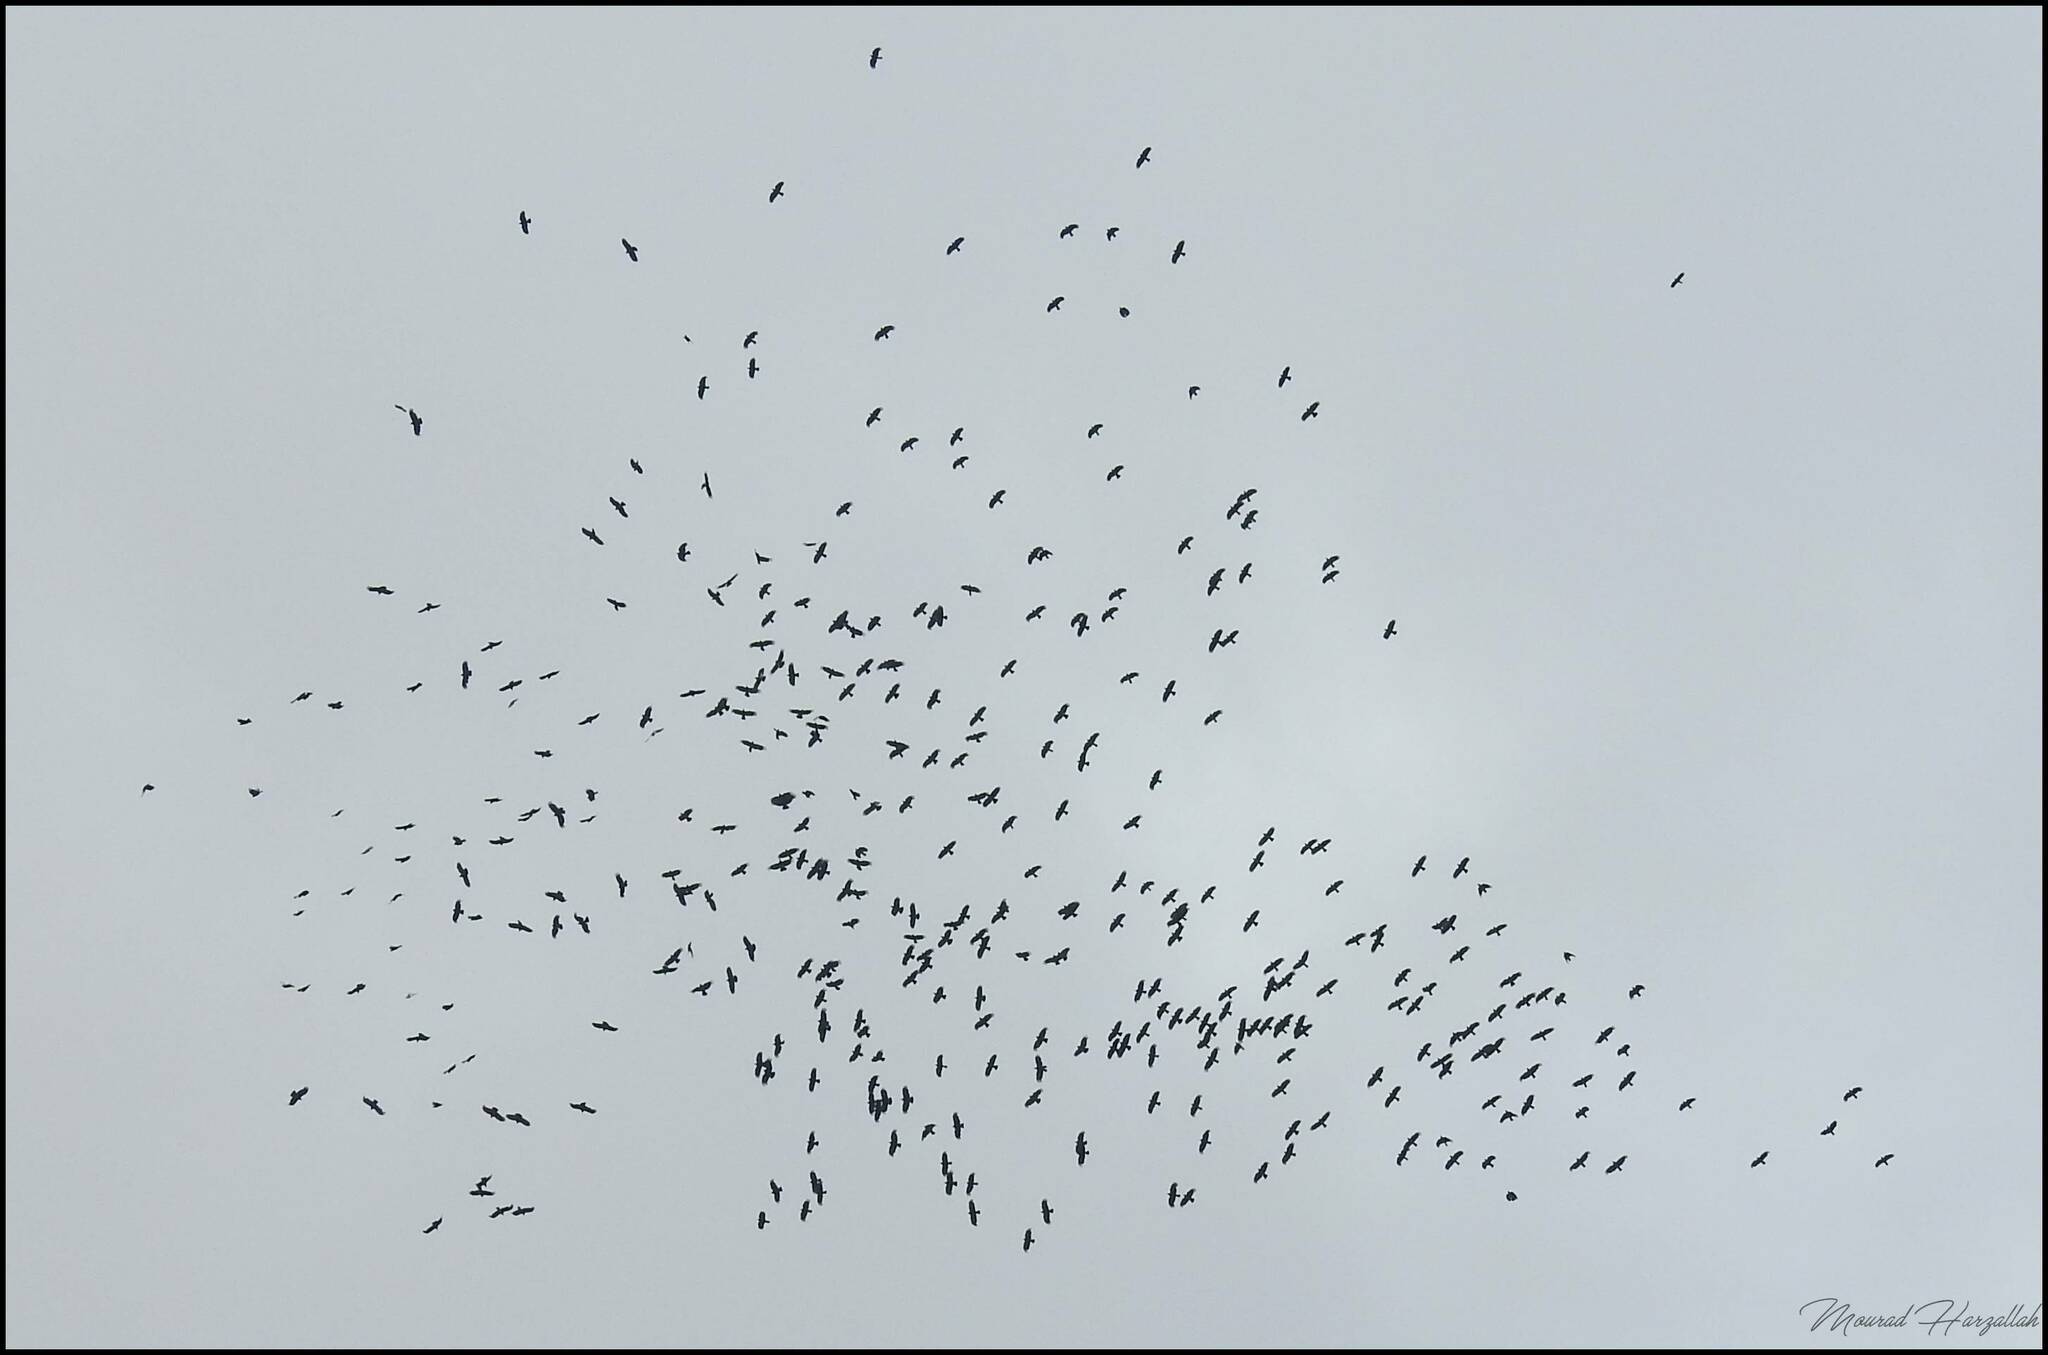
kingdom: Animalia
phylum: Chordata
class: Aves
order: Passeriformes
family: Corvidae
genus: Pyrrhocorax
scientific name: Pyrrhocorax pyrrhocorax
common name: Red-billed chough
